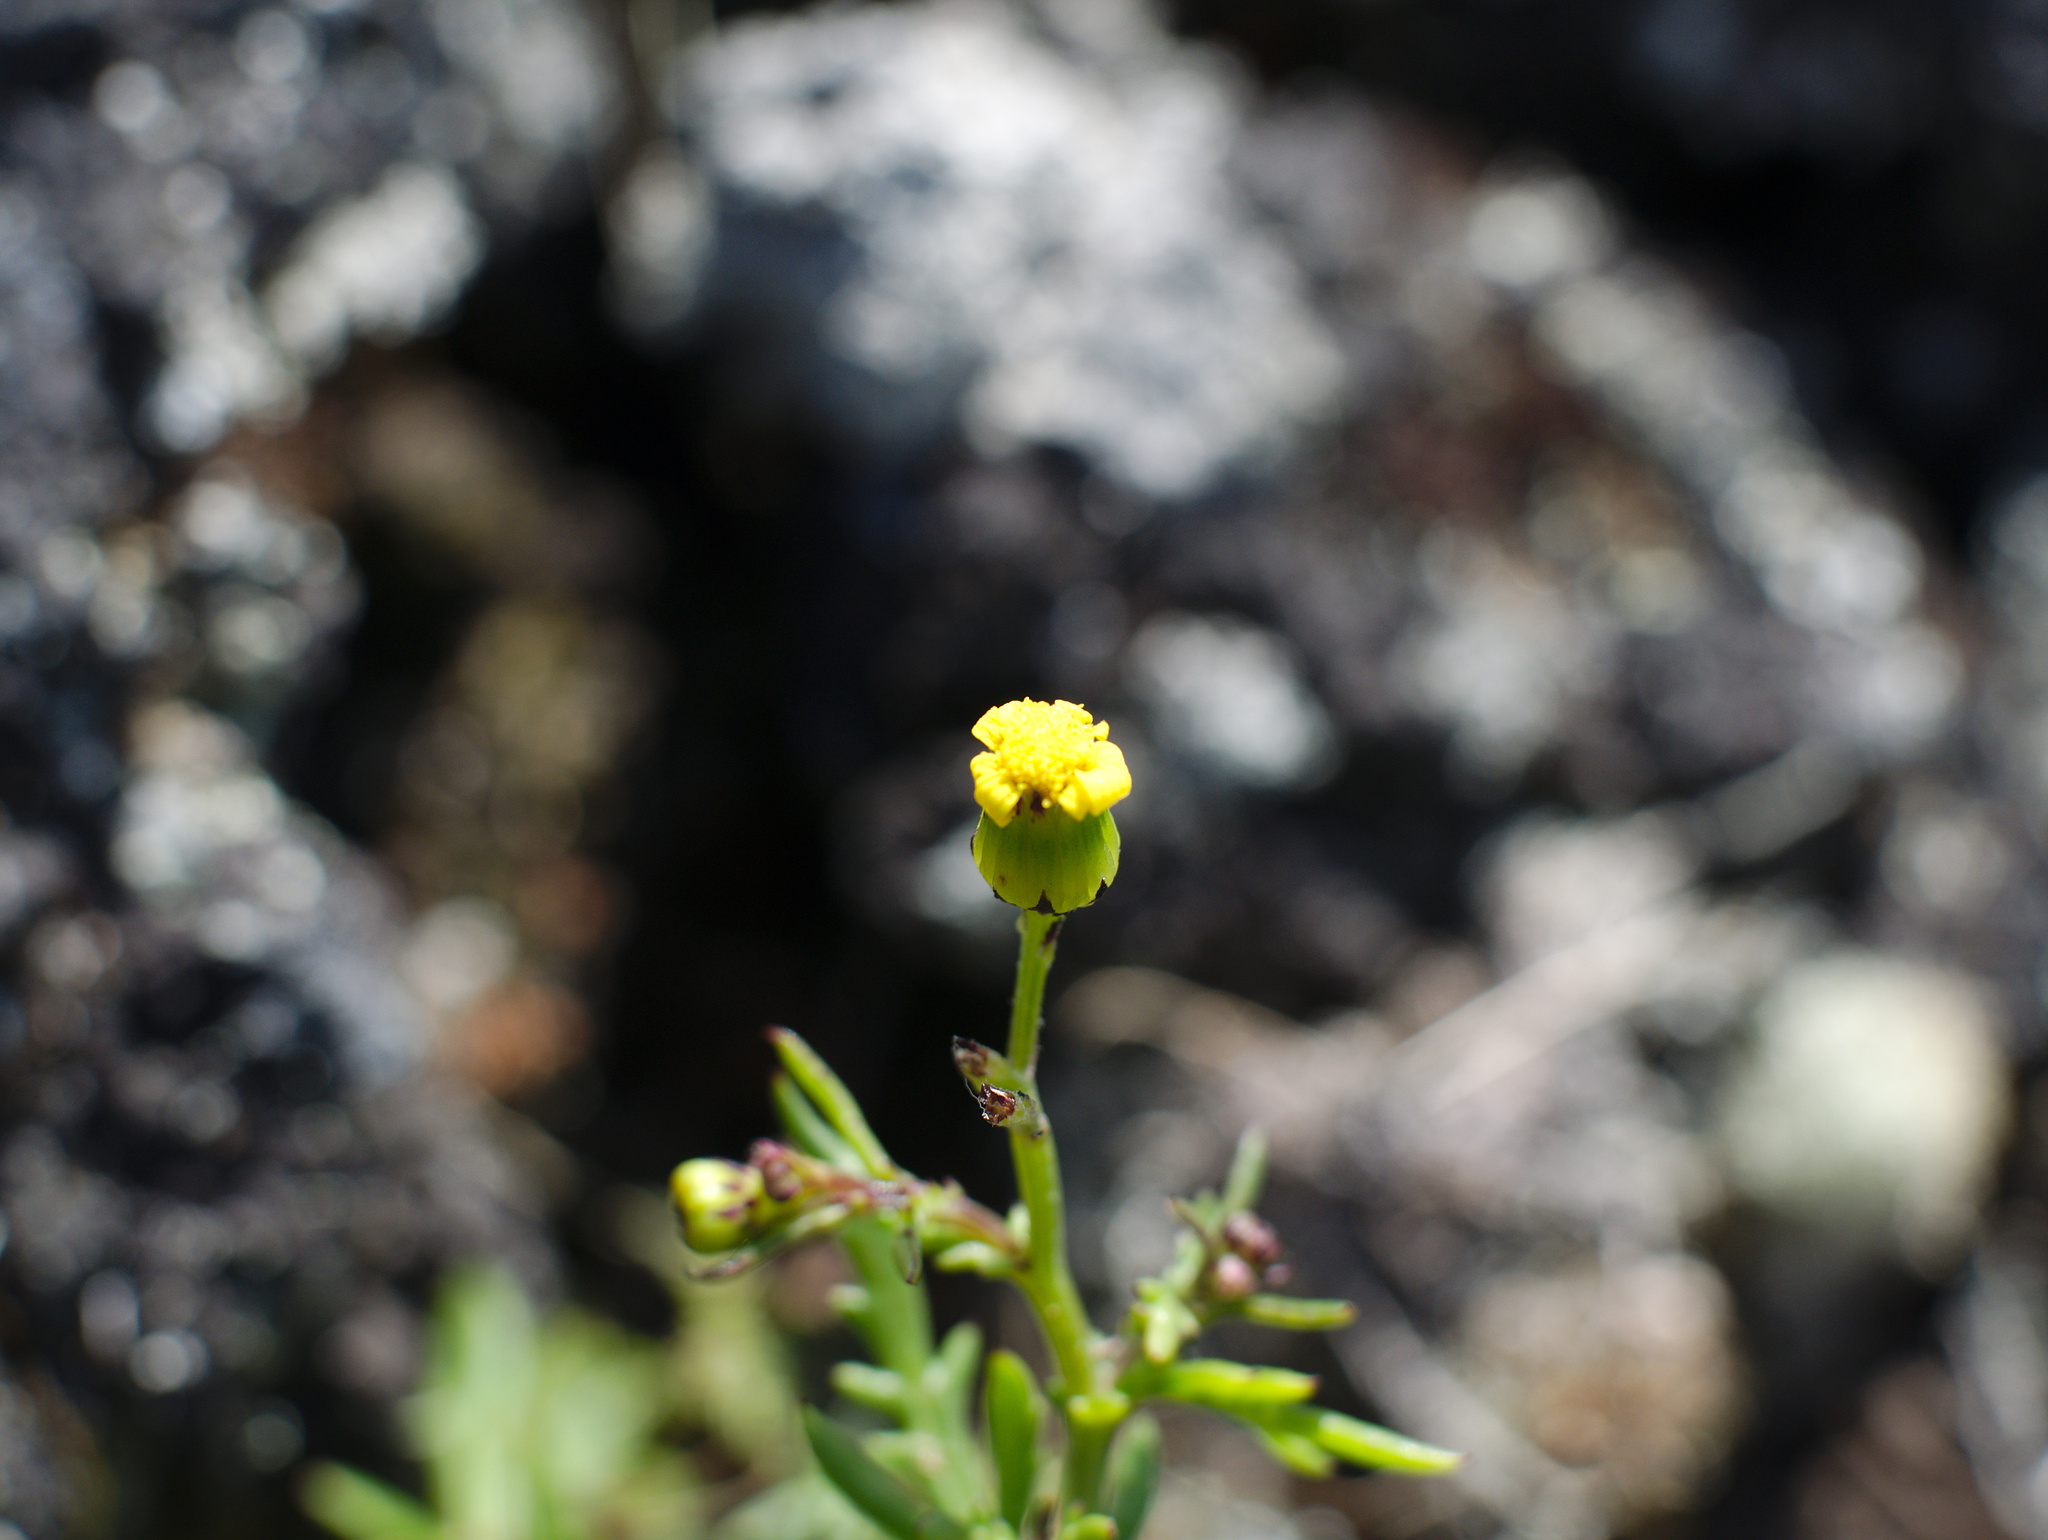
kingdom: Plantae
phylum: Tracheophyta
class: Magnoliopsida
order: Asterales
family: Asteraceae
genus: Senecio
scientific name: Senecio lautus
